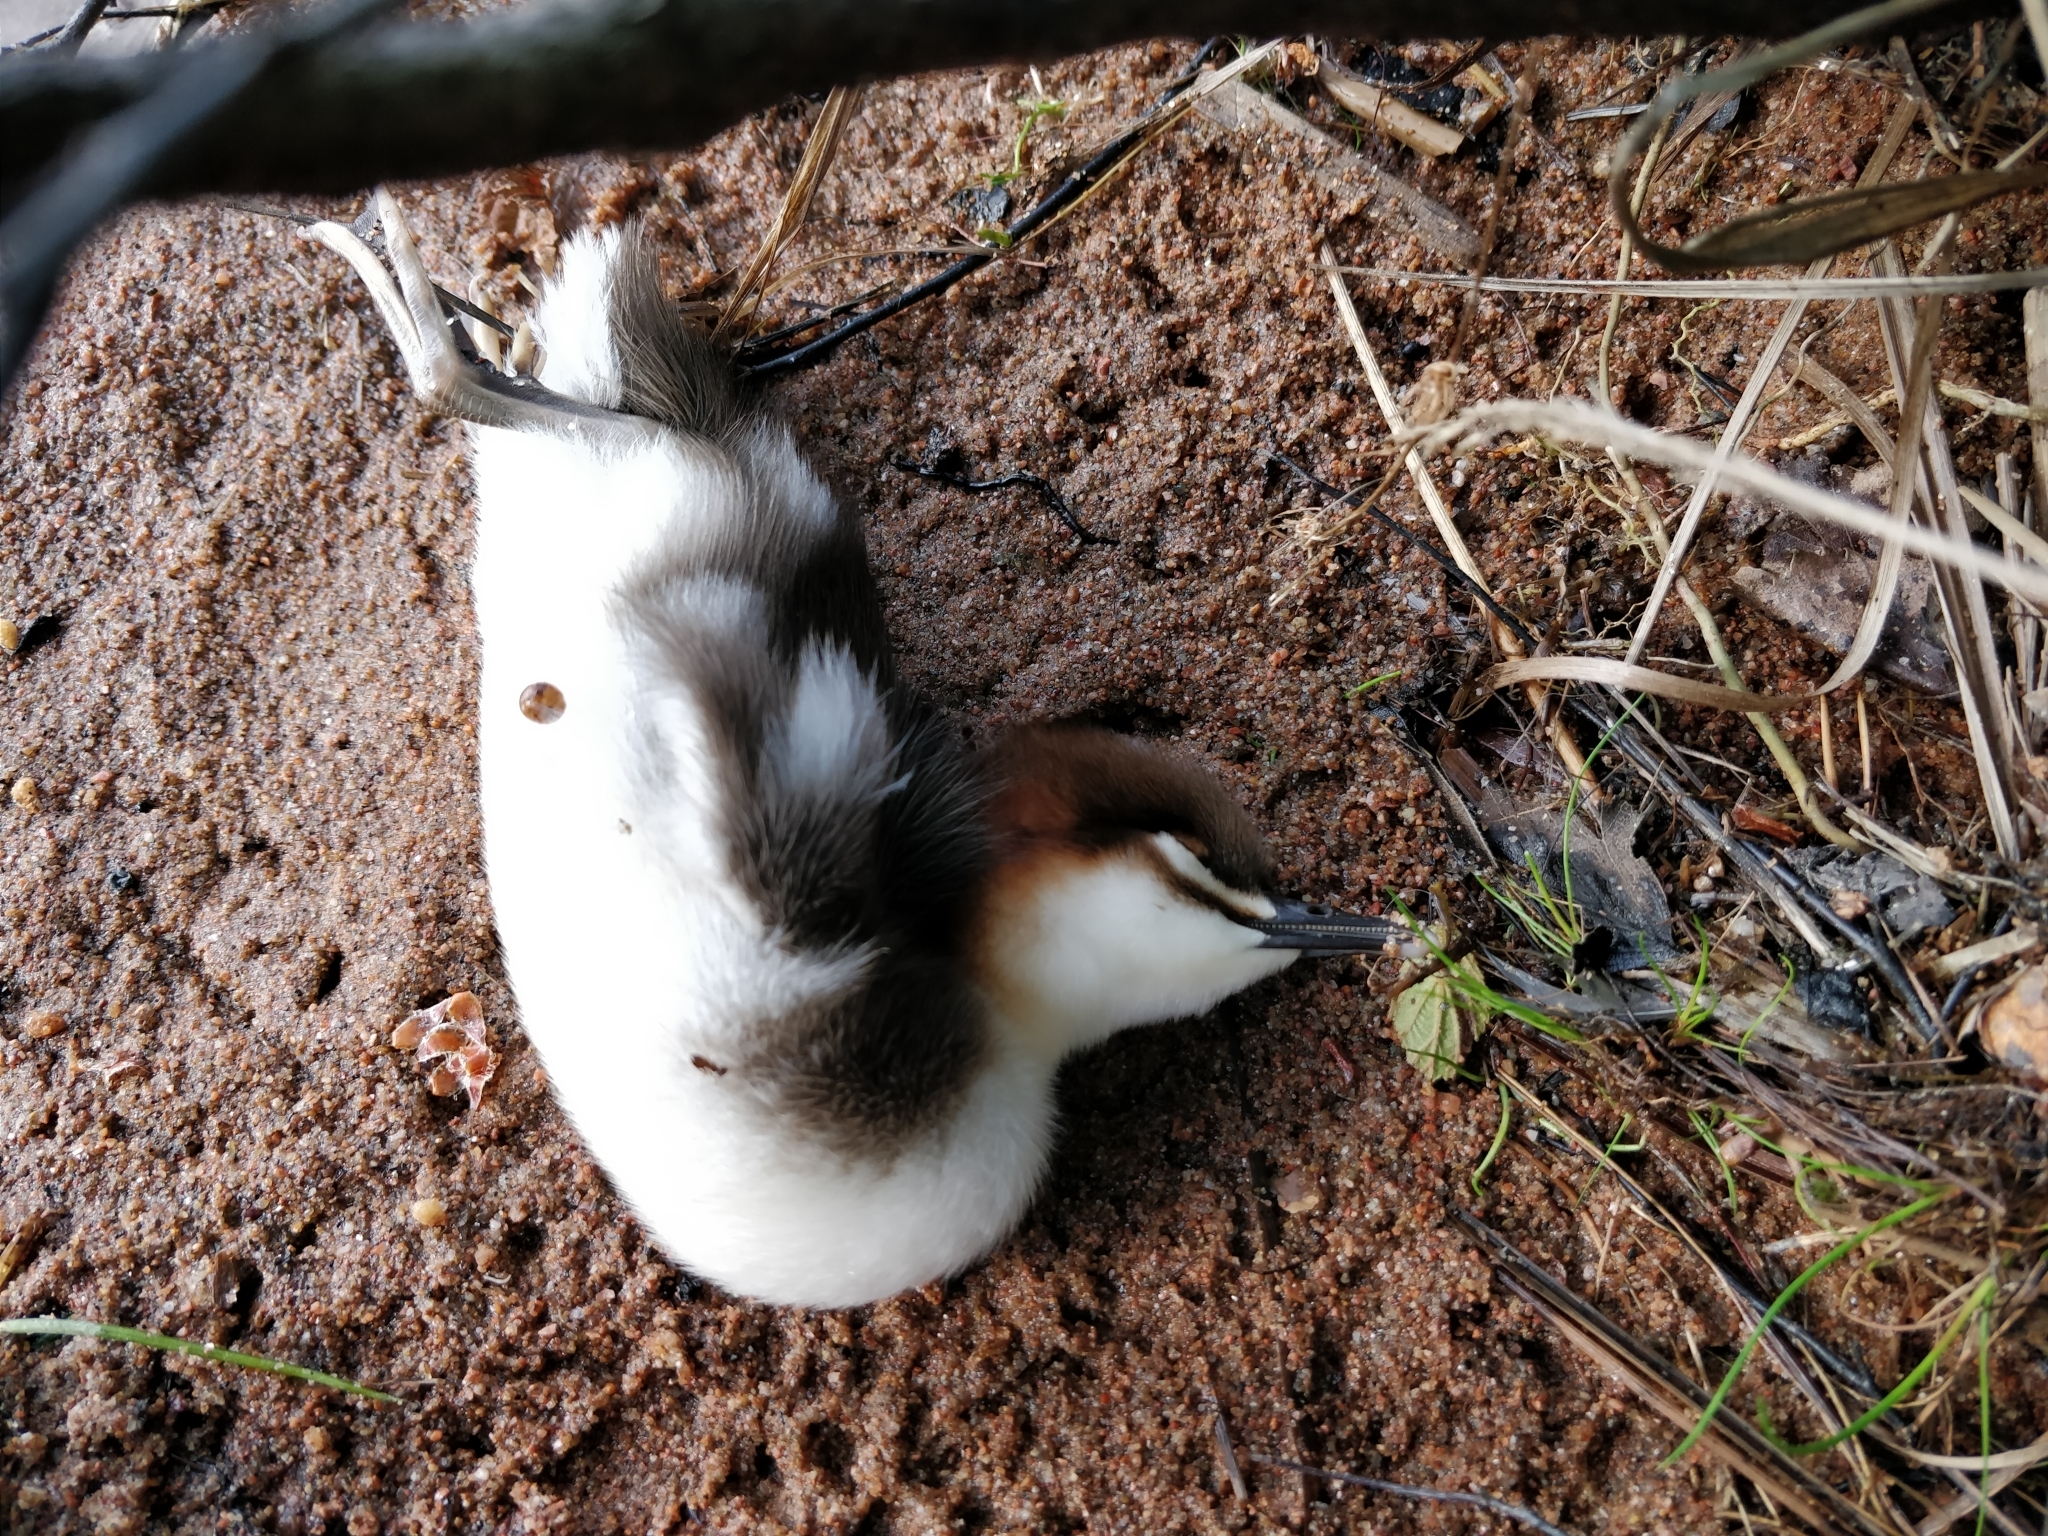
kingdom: Animalia
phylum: Chordata
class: Aves
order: Anseriformes
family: Anatidae
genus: Mergus
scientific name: Mergus merganser
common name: Common merganser
